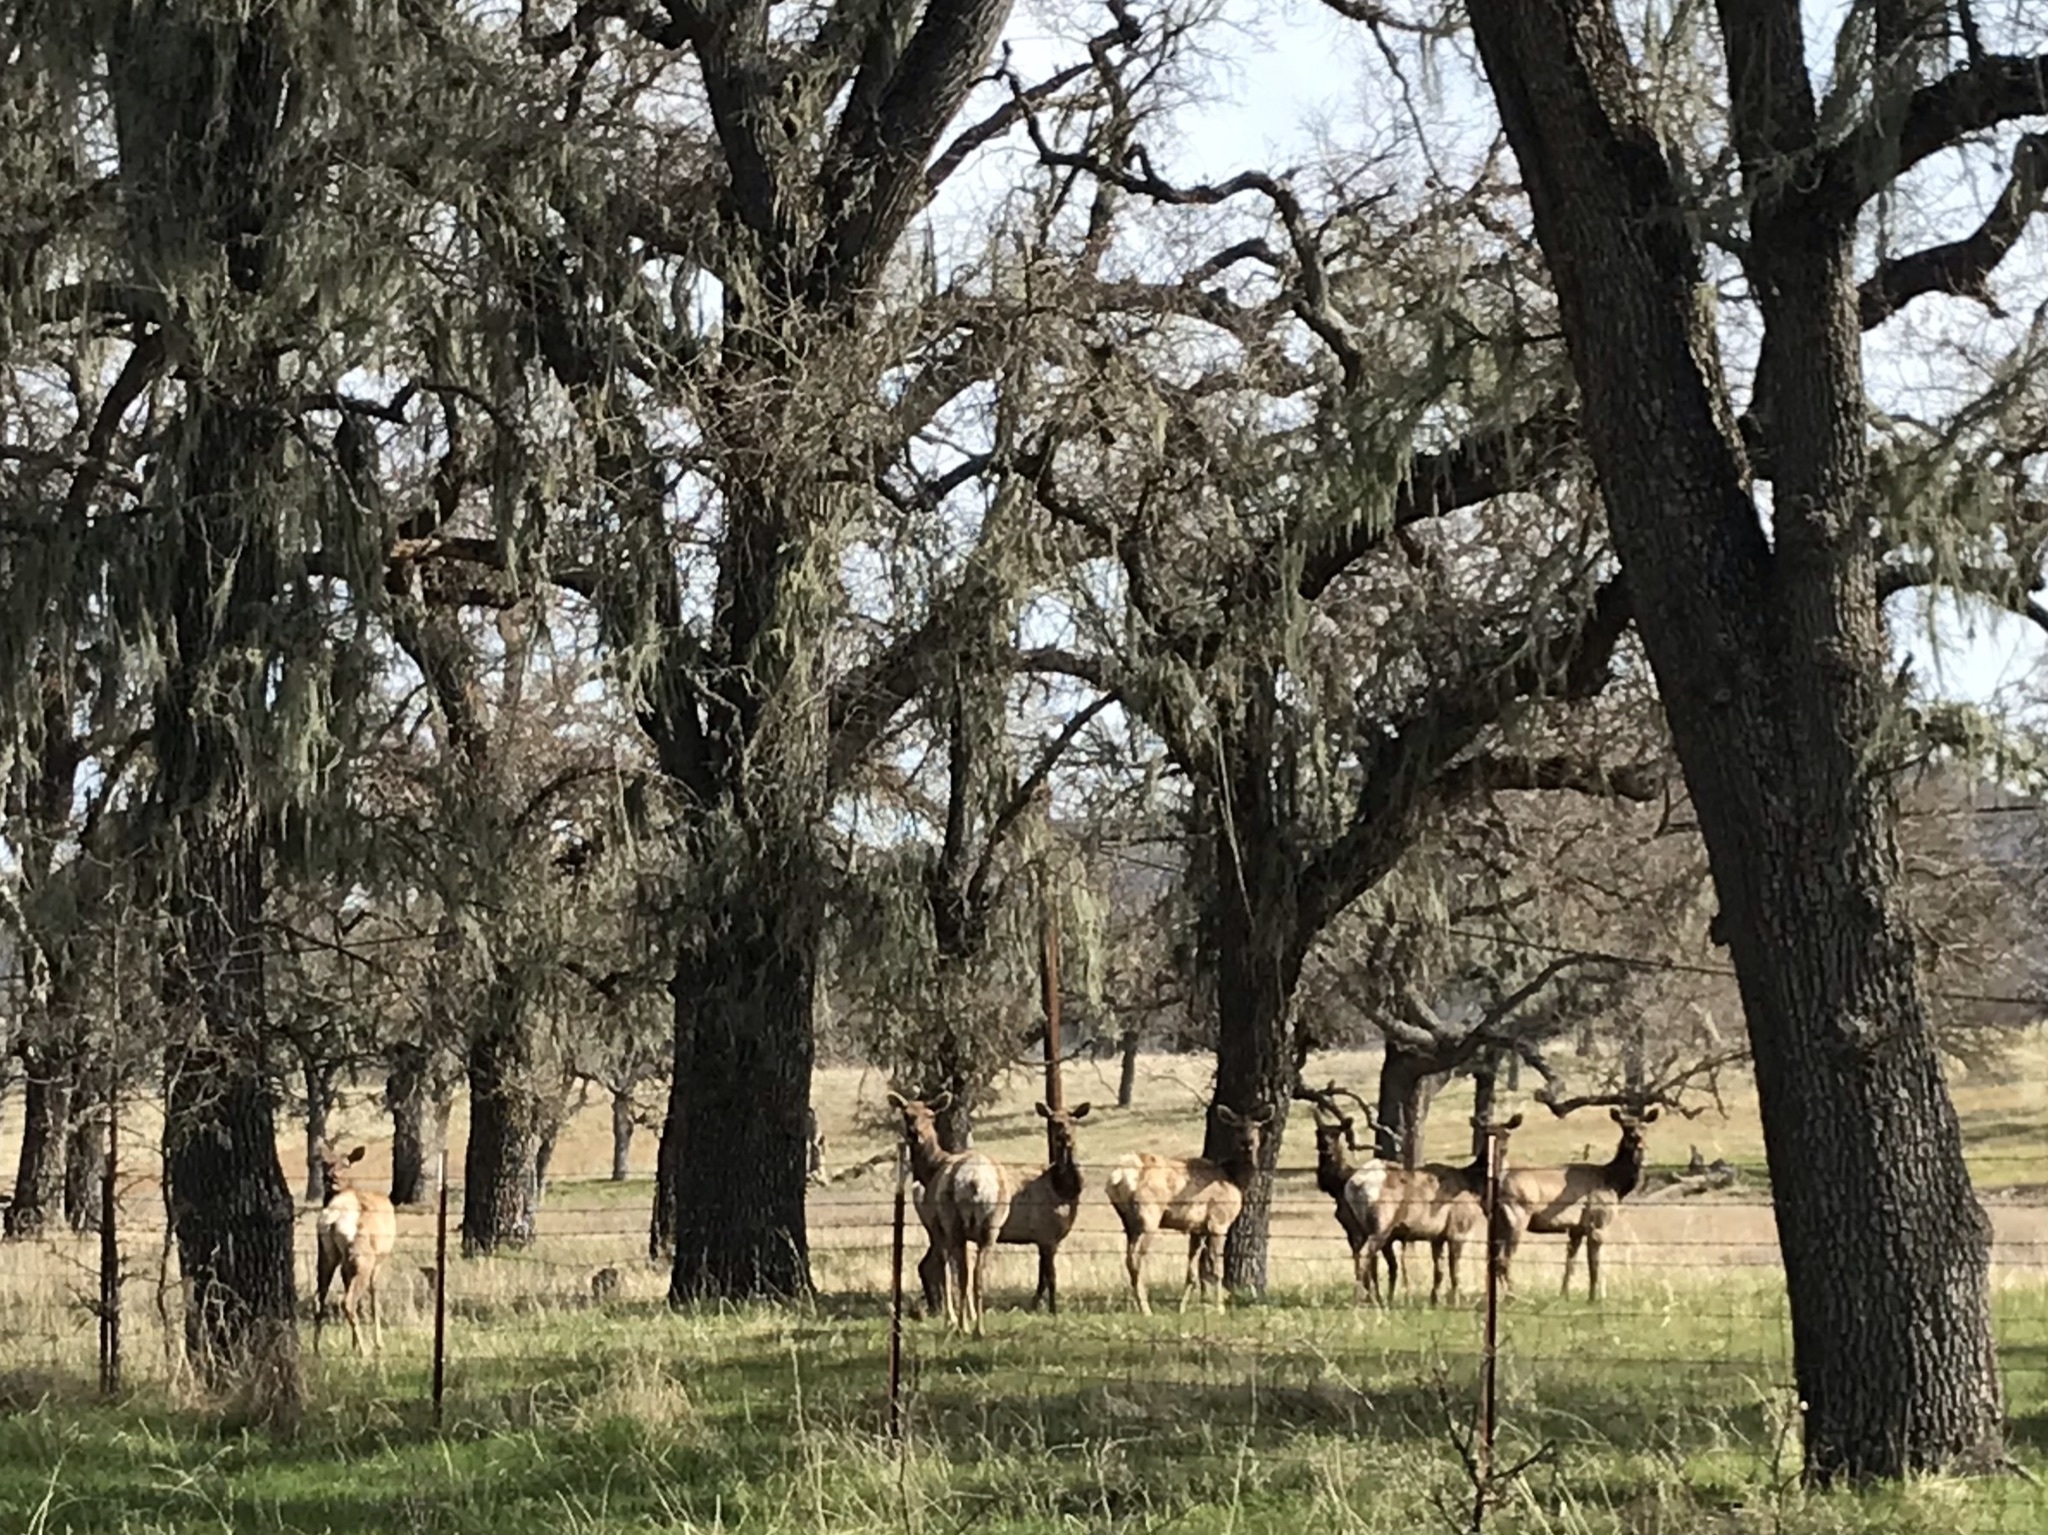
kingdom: Animalia
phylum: Chordata
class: Mammalia
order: Artiodactyla
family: Cervidae
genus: Cervus
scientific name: Cervus elaphus
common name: Red deer
